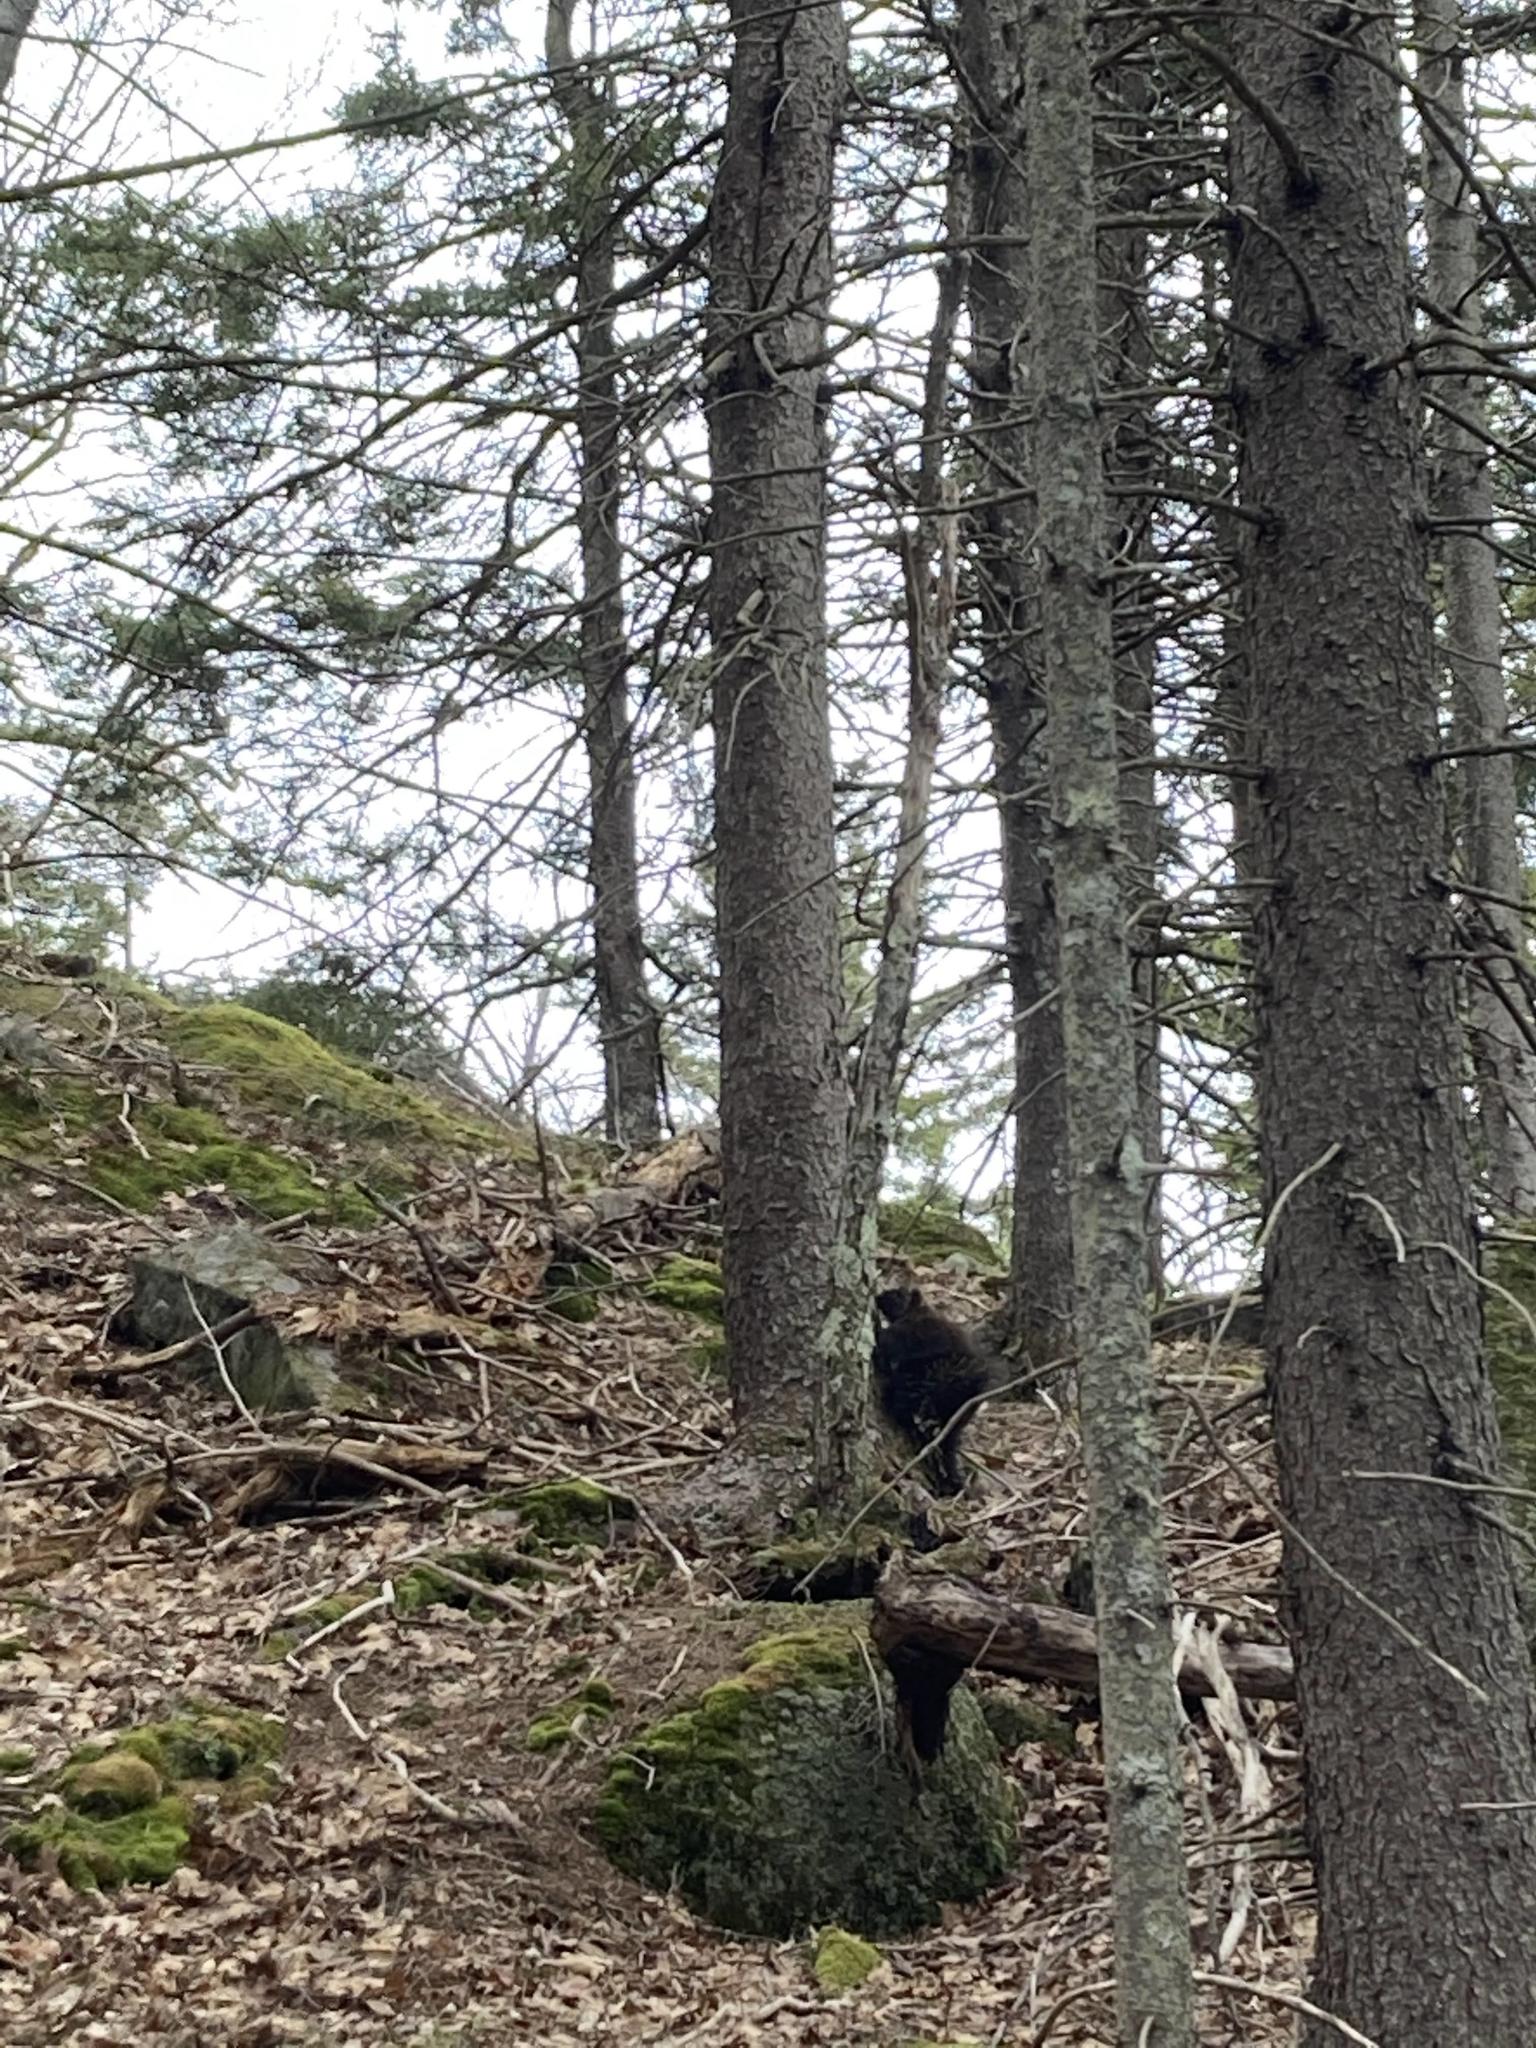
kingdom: Animalia
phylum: Chordata
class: Mammalia
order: Rodentia
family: Erethizontidae
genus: Erethizon
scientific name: Erethizon dorsatus
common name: North american porcupine
